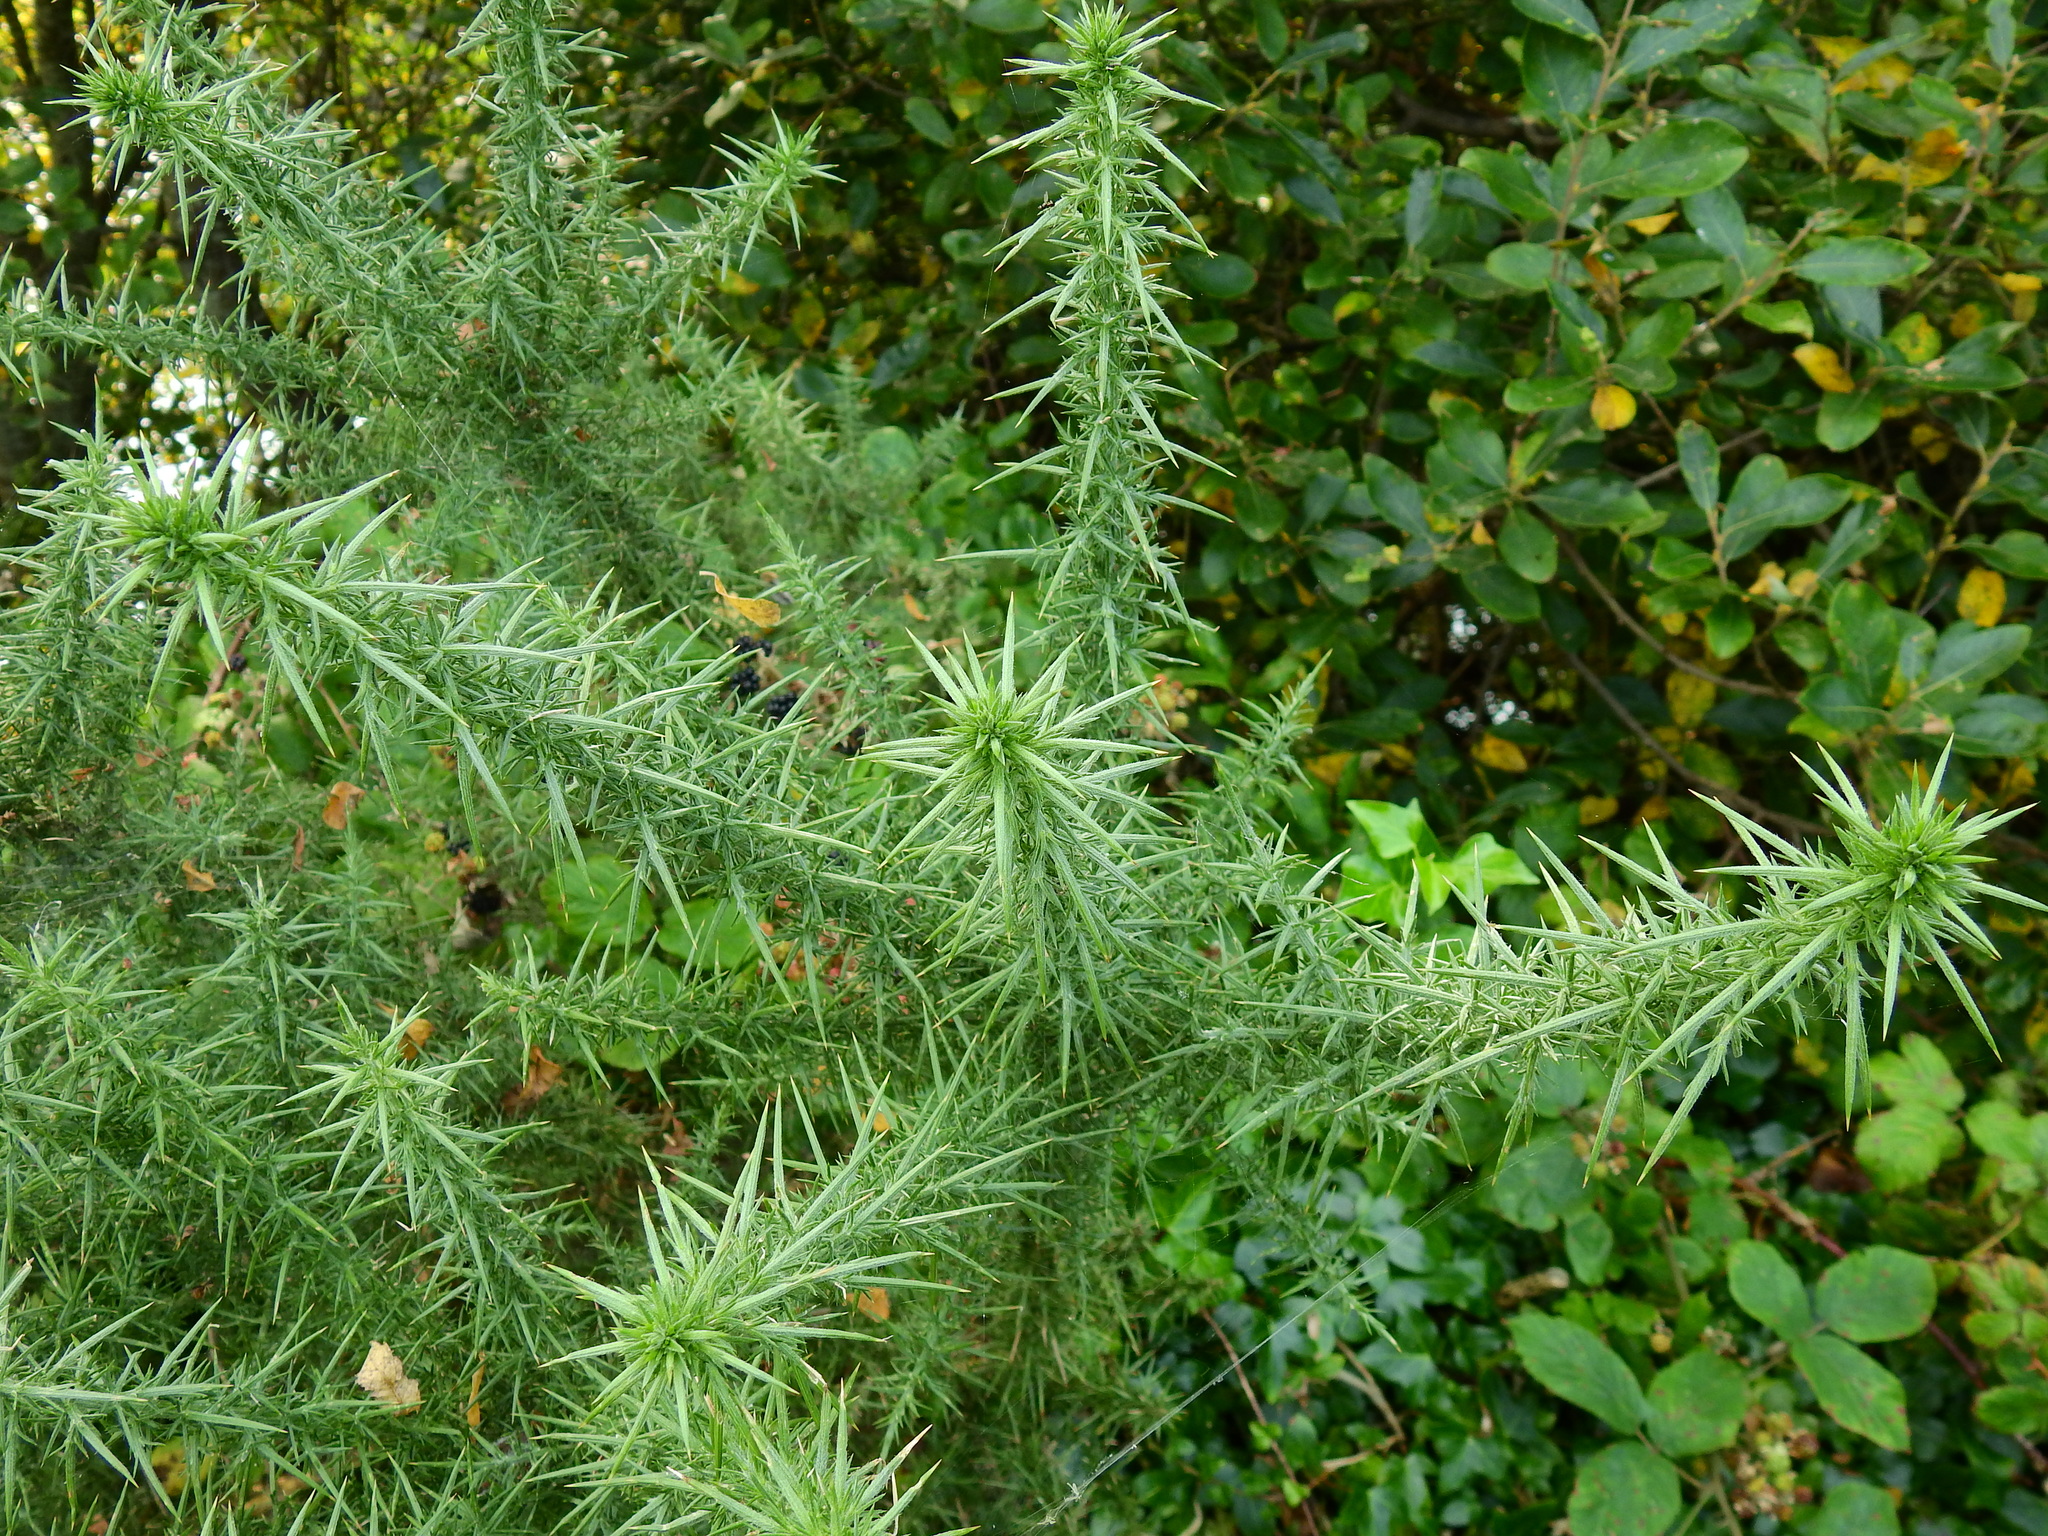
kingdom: Plantae
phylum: Tracheophyta
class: Magnoliopsida
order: Fabales
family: Fabaceae
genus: Ulex
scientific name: Ulex europaeus
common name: Common gorse
